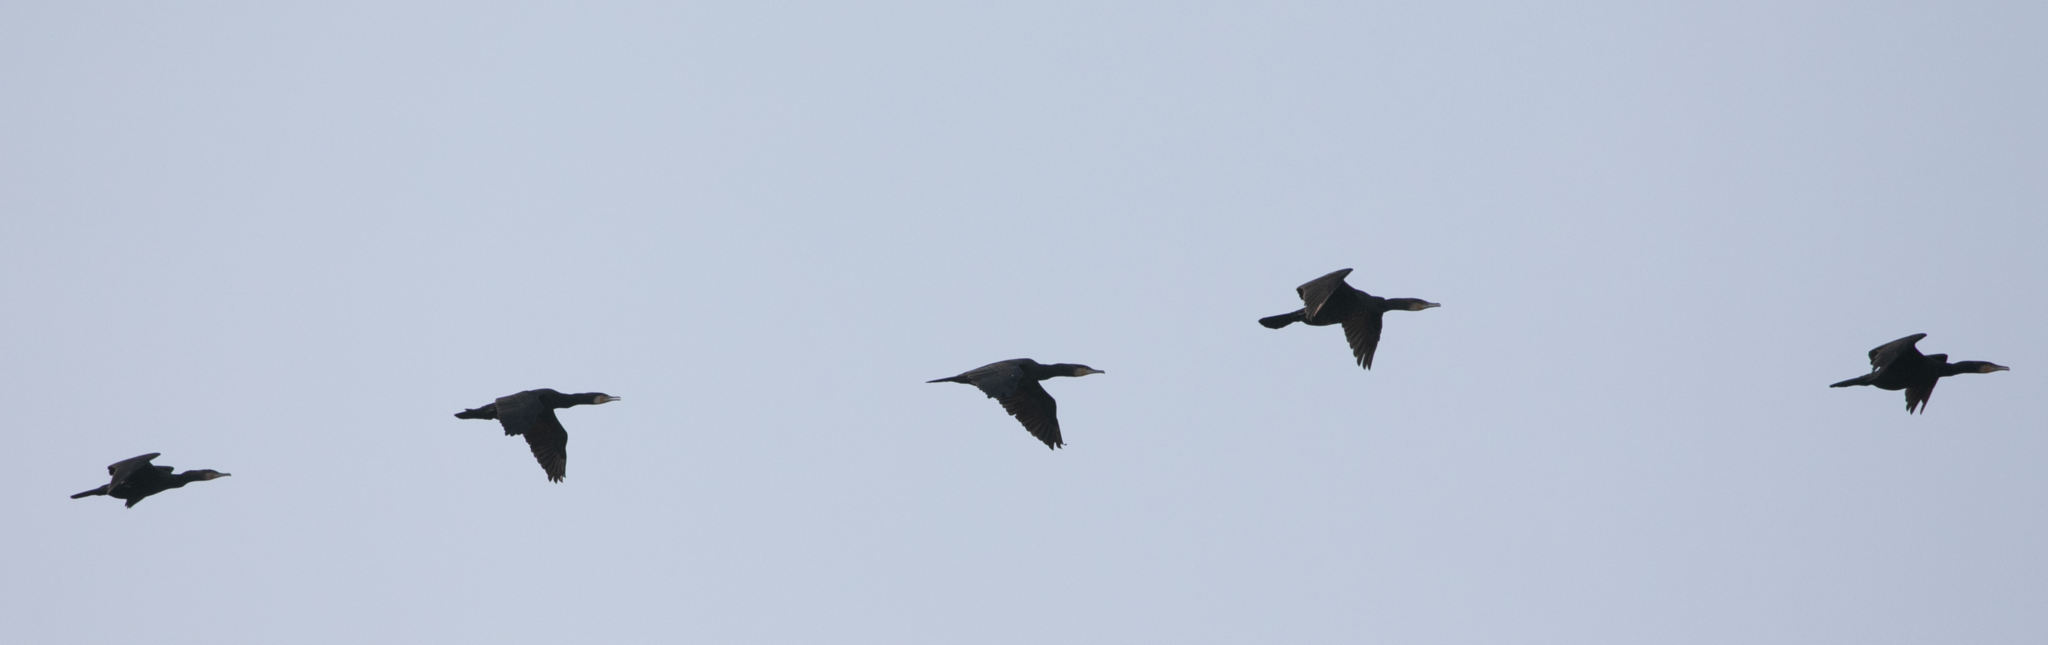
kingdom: Animalia
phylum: Chordata
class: Aves
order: Suliformes
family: Phalacrocoracidae
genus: Phalacrocorax
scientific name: Phalacrocorax carbo
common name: Great cormorant
